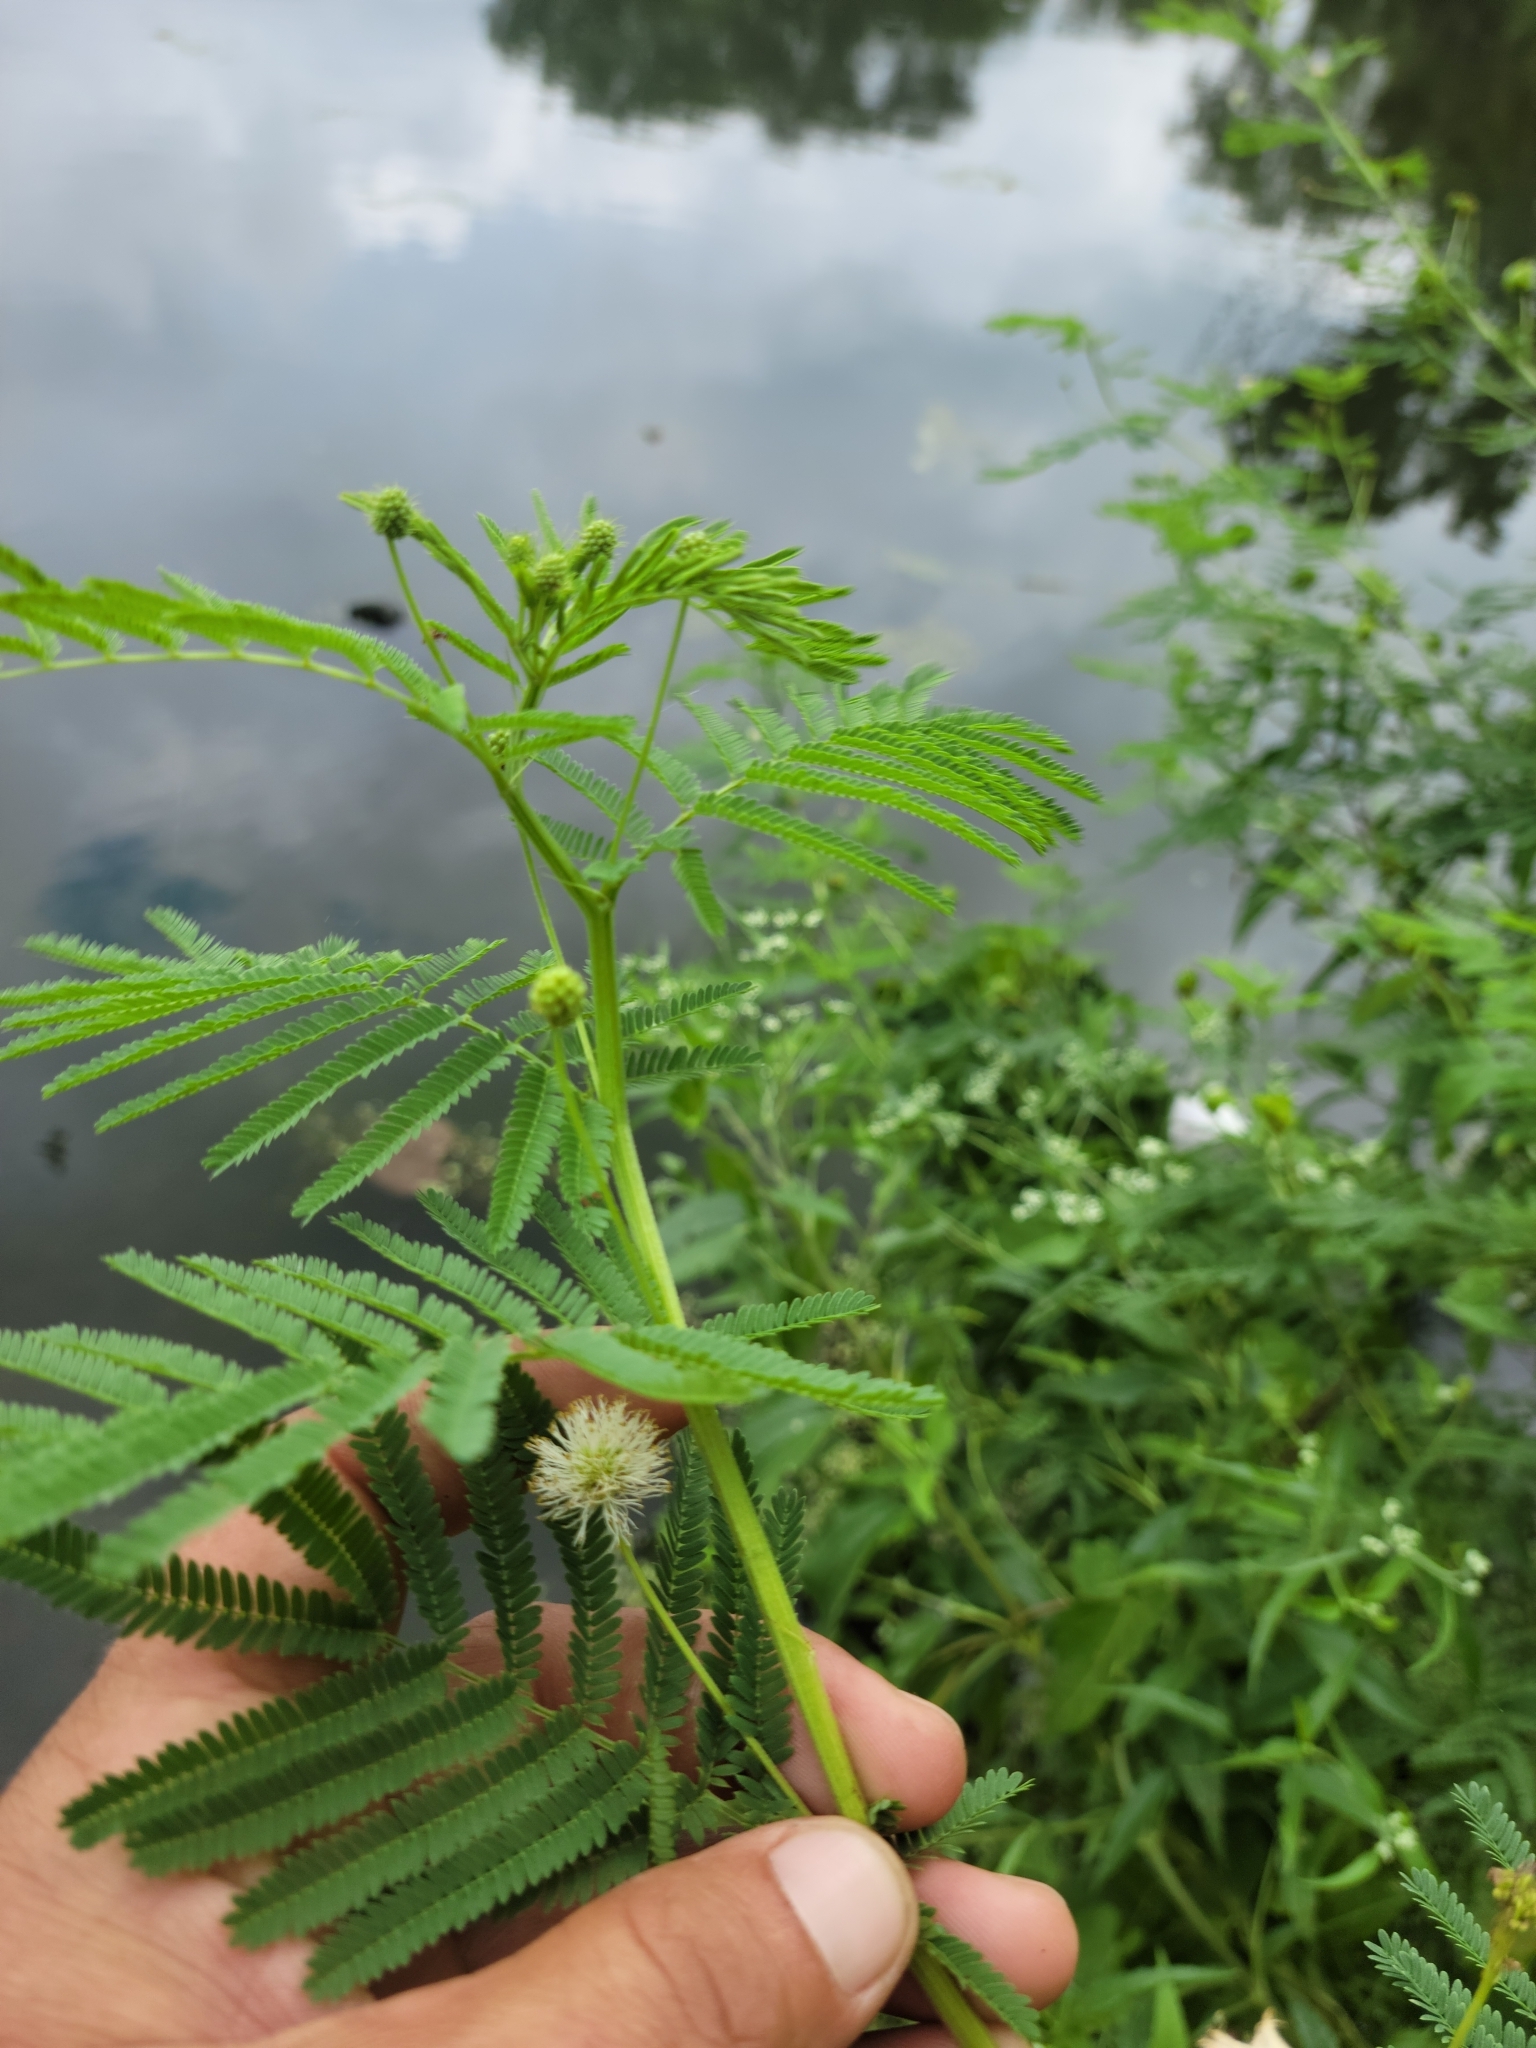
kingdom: Plantae
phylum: Tracheophyta
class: Magnoliopsida
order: Fabales
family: Fabaceae
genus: Desmanthus
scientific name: Desmanthus illinoensis
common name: Illinois bundle-flower
